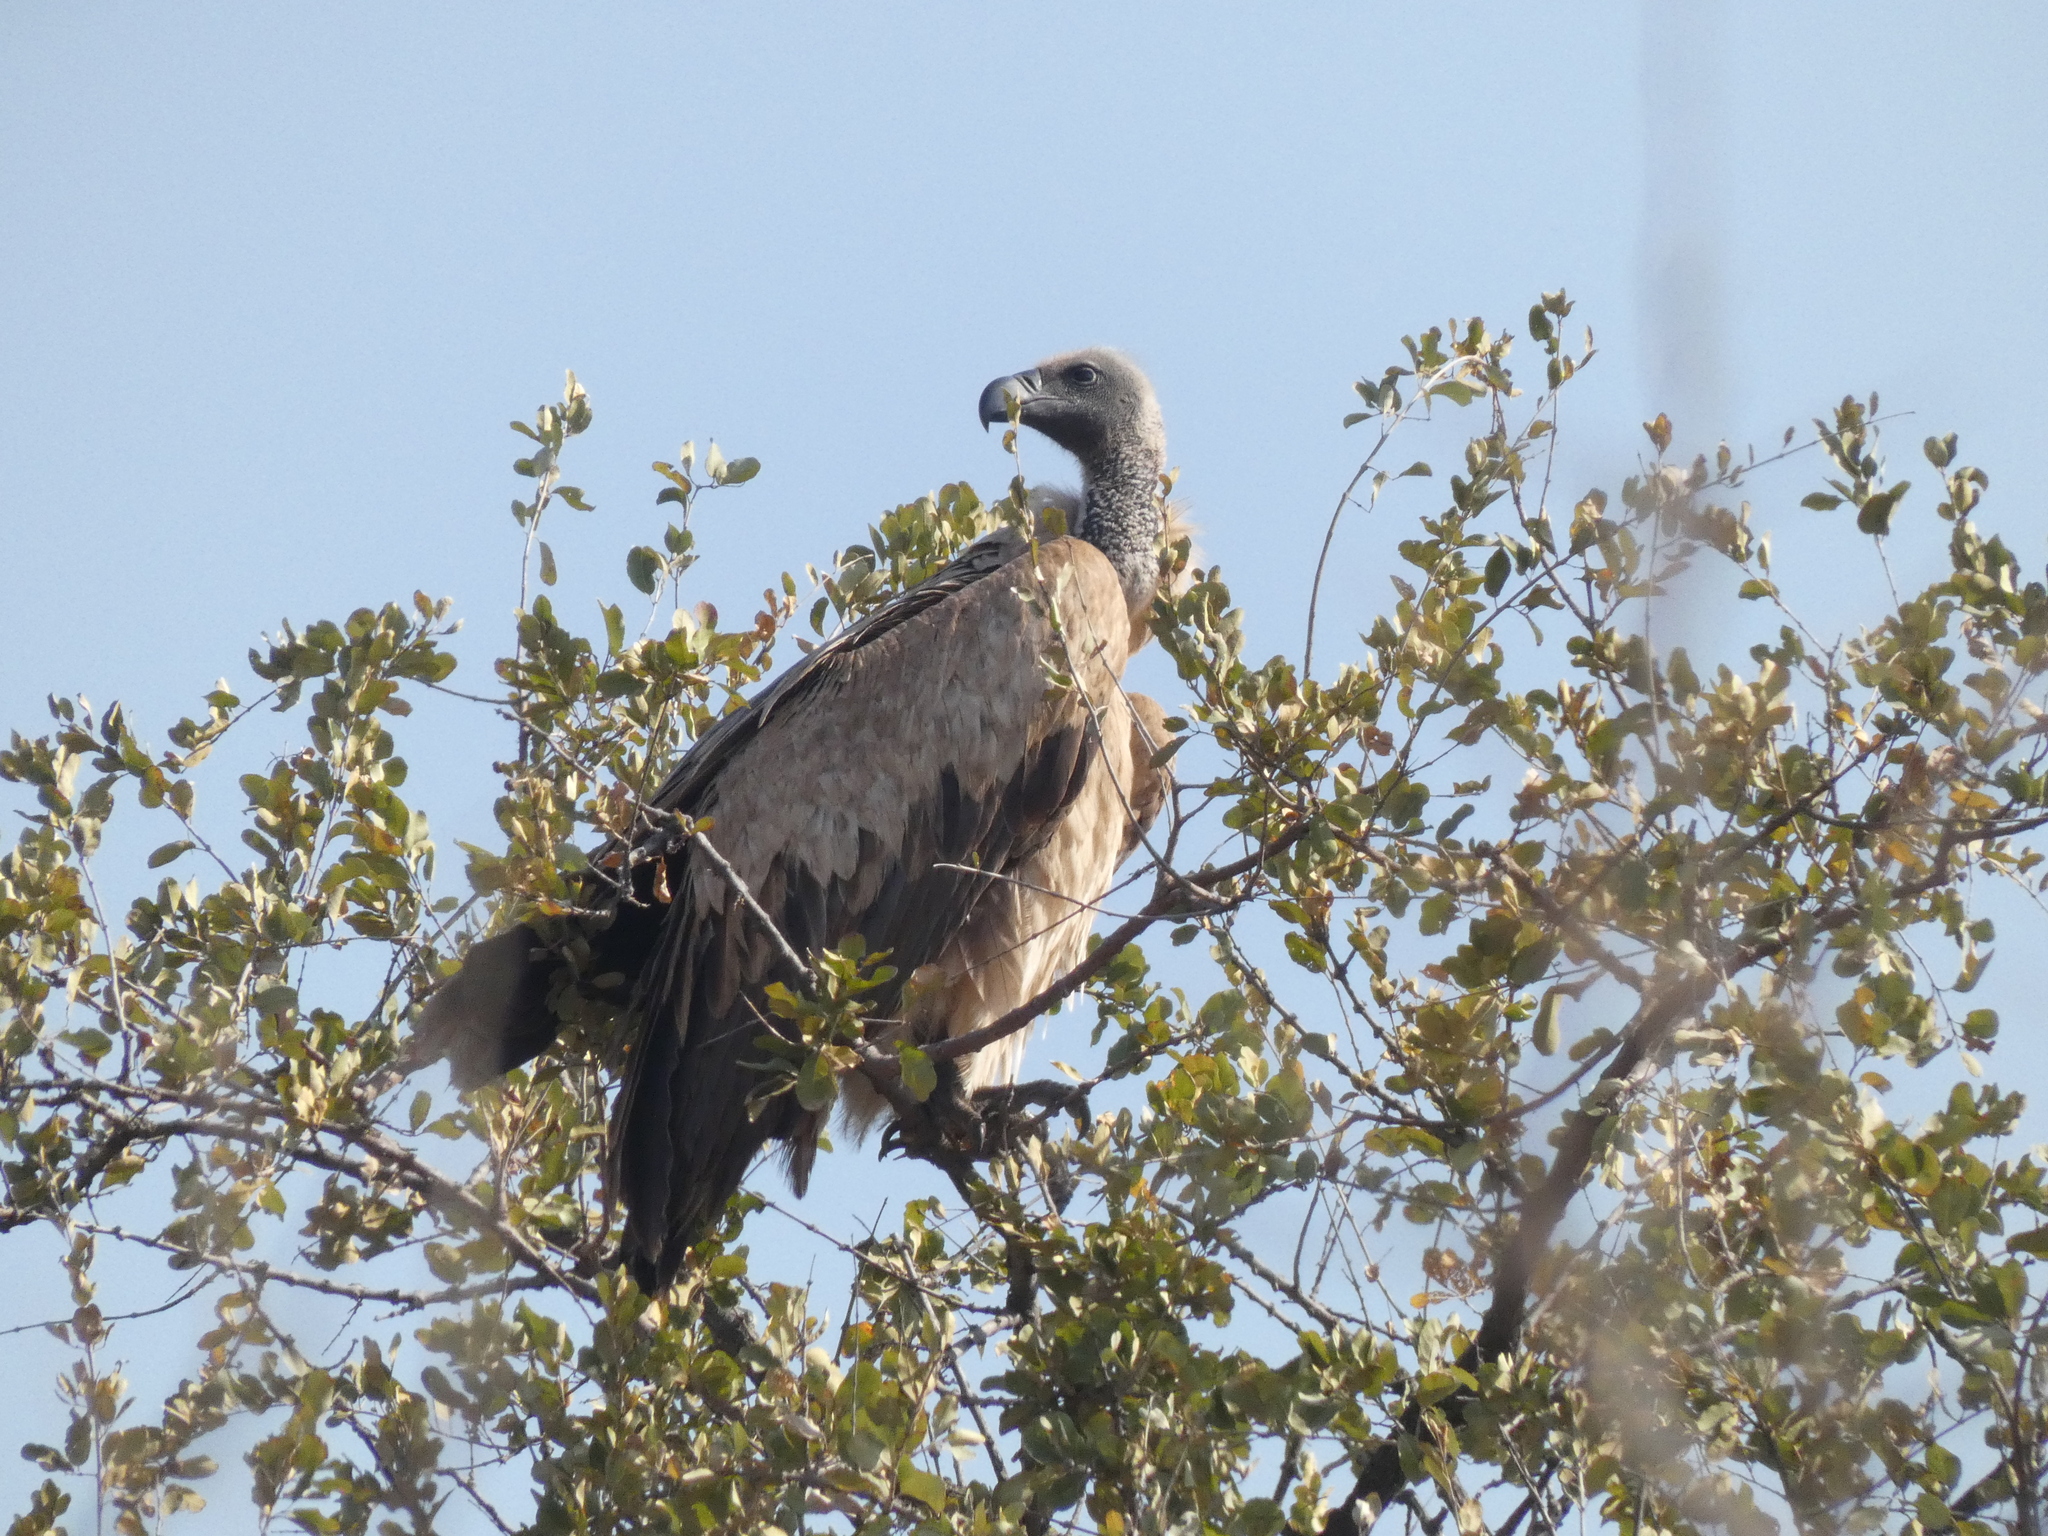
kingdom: Animalia
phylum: Chordata
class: Aves
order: Accipitriformes
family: Accipitridae
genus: Gyps
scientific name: Gyps africanus
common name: White-backed vulture
